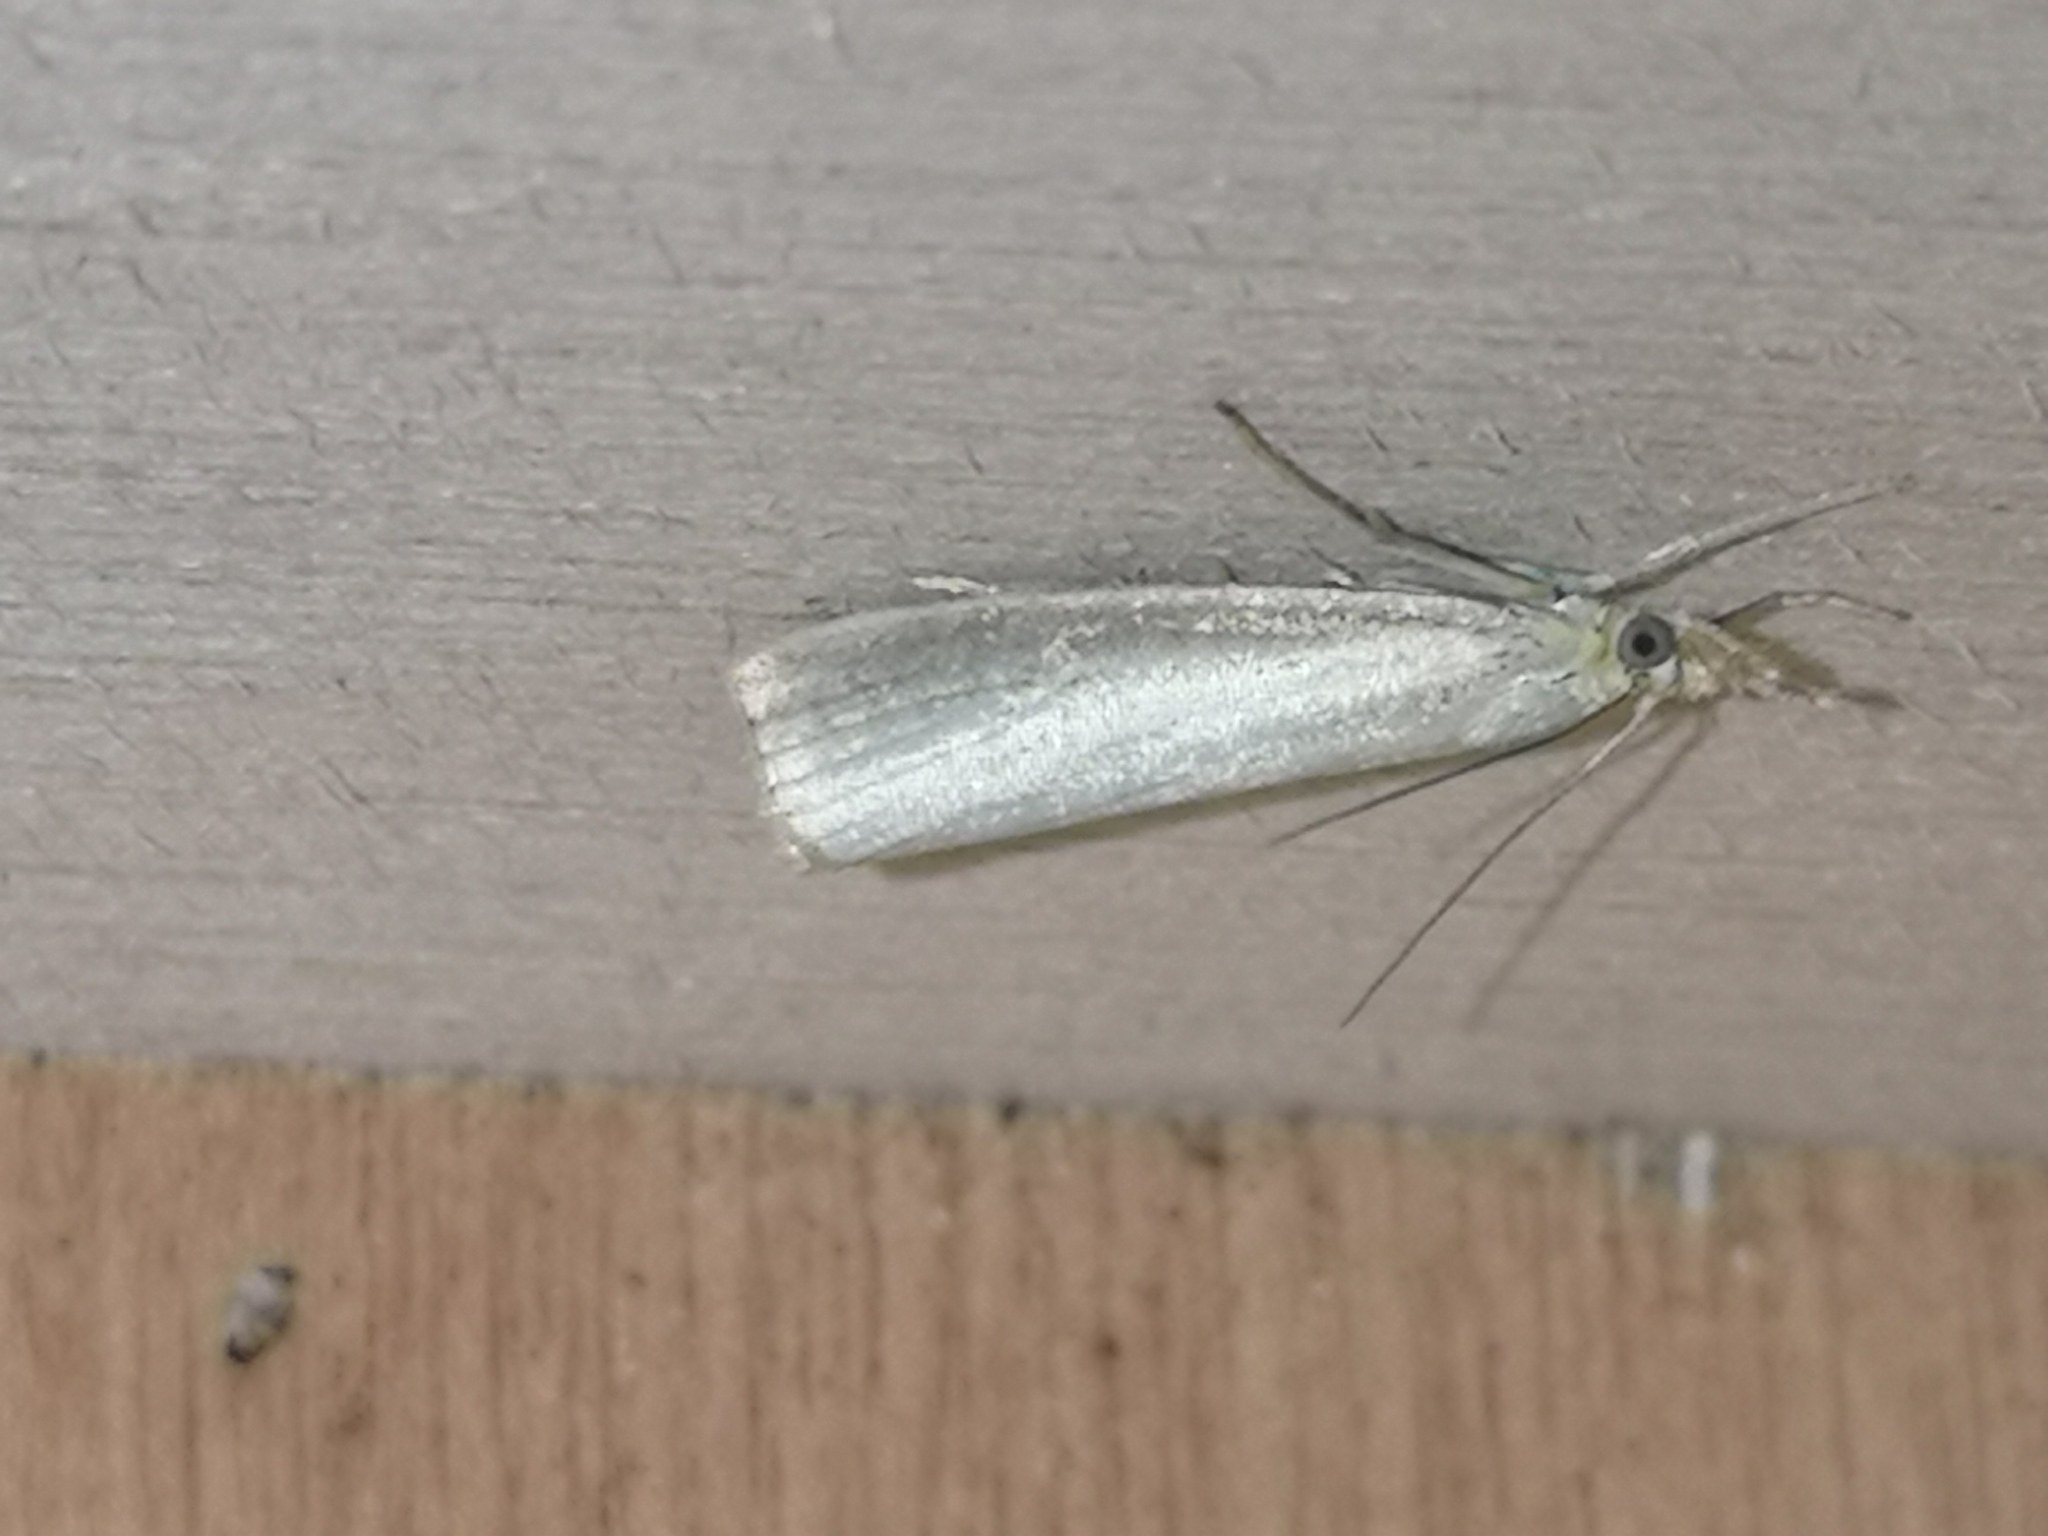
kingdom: Animalia
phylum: Arthropoda
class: Insecta
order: Lepidoptera
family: Crambidae
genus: Agriphila
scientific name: Agriphila straminella
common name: Straw grass-veneer
